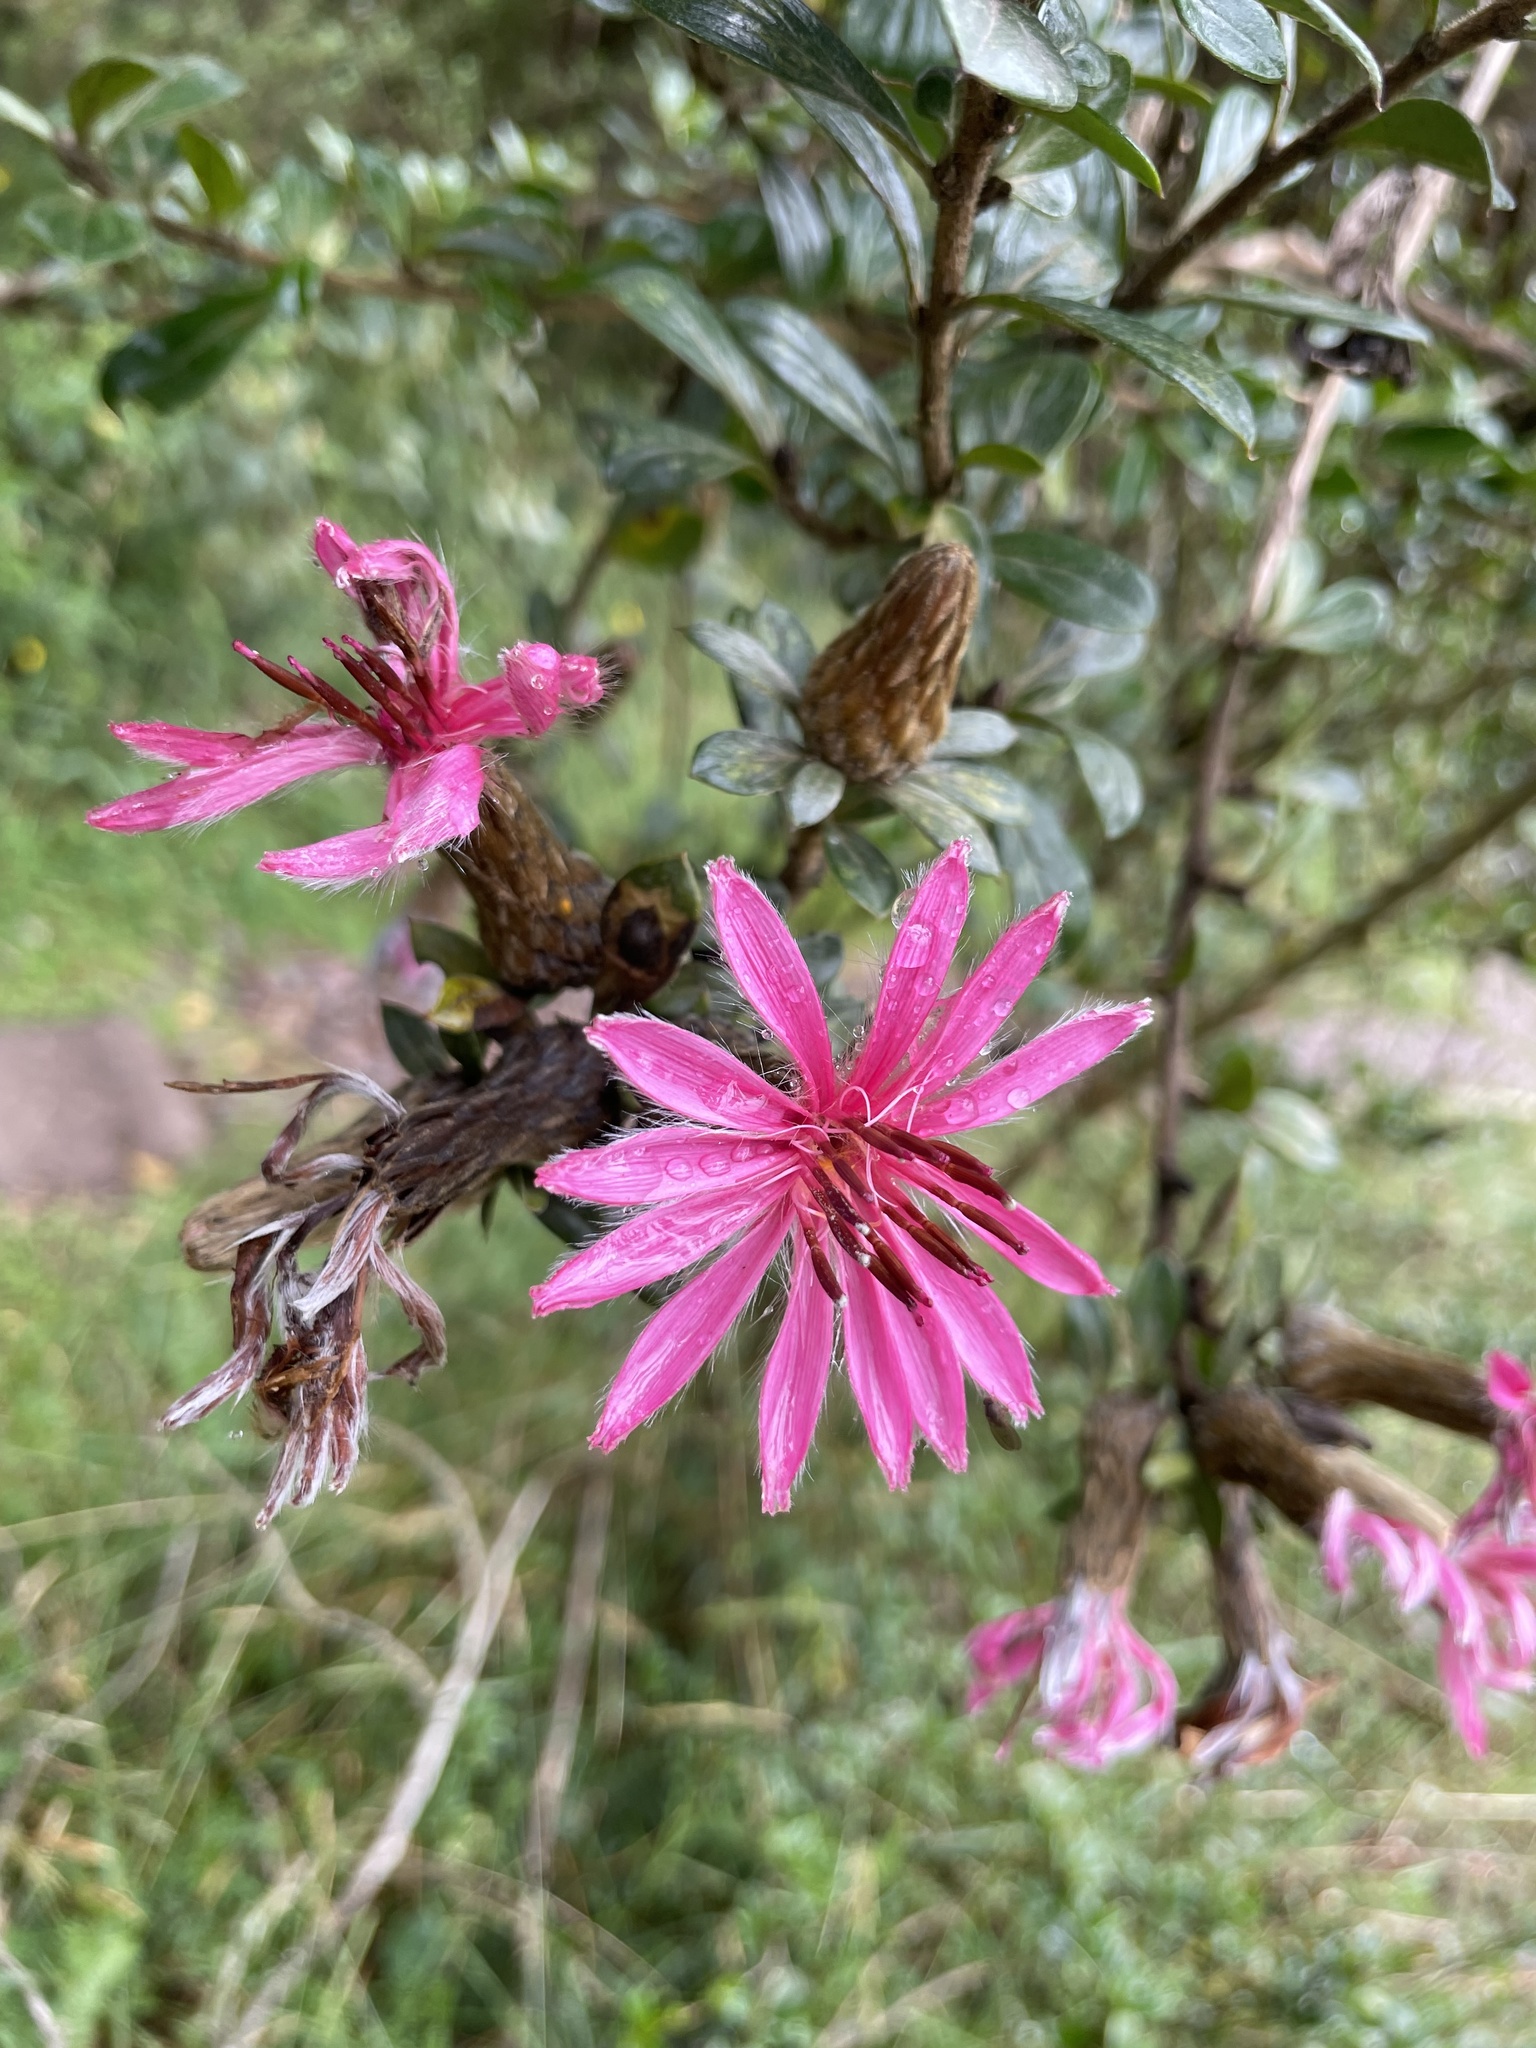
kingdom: Plantae
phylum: Tracheophyta
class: Magnoliopsida
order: Asterales
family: Asteraceae
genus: Barnadesia
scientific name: Barnadesia arborea
